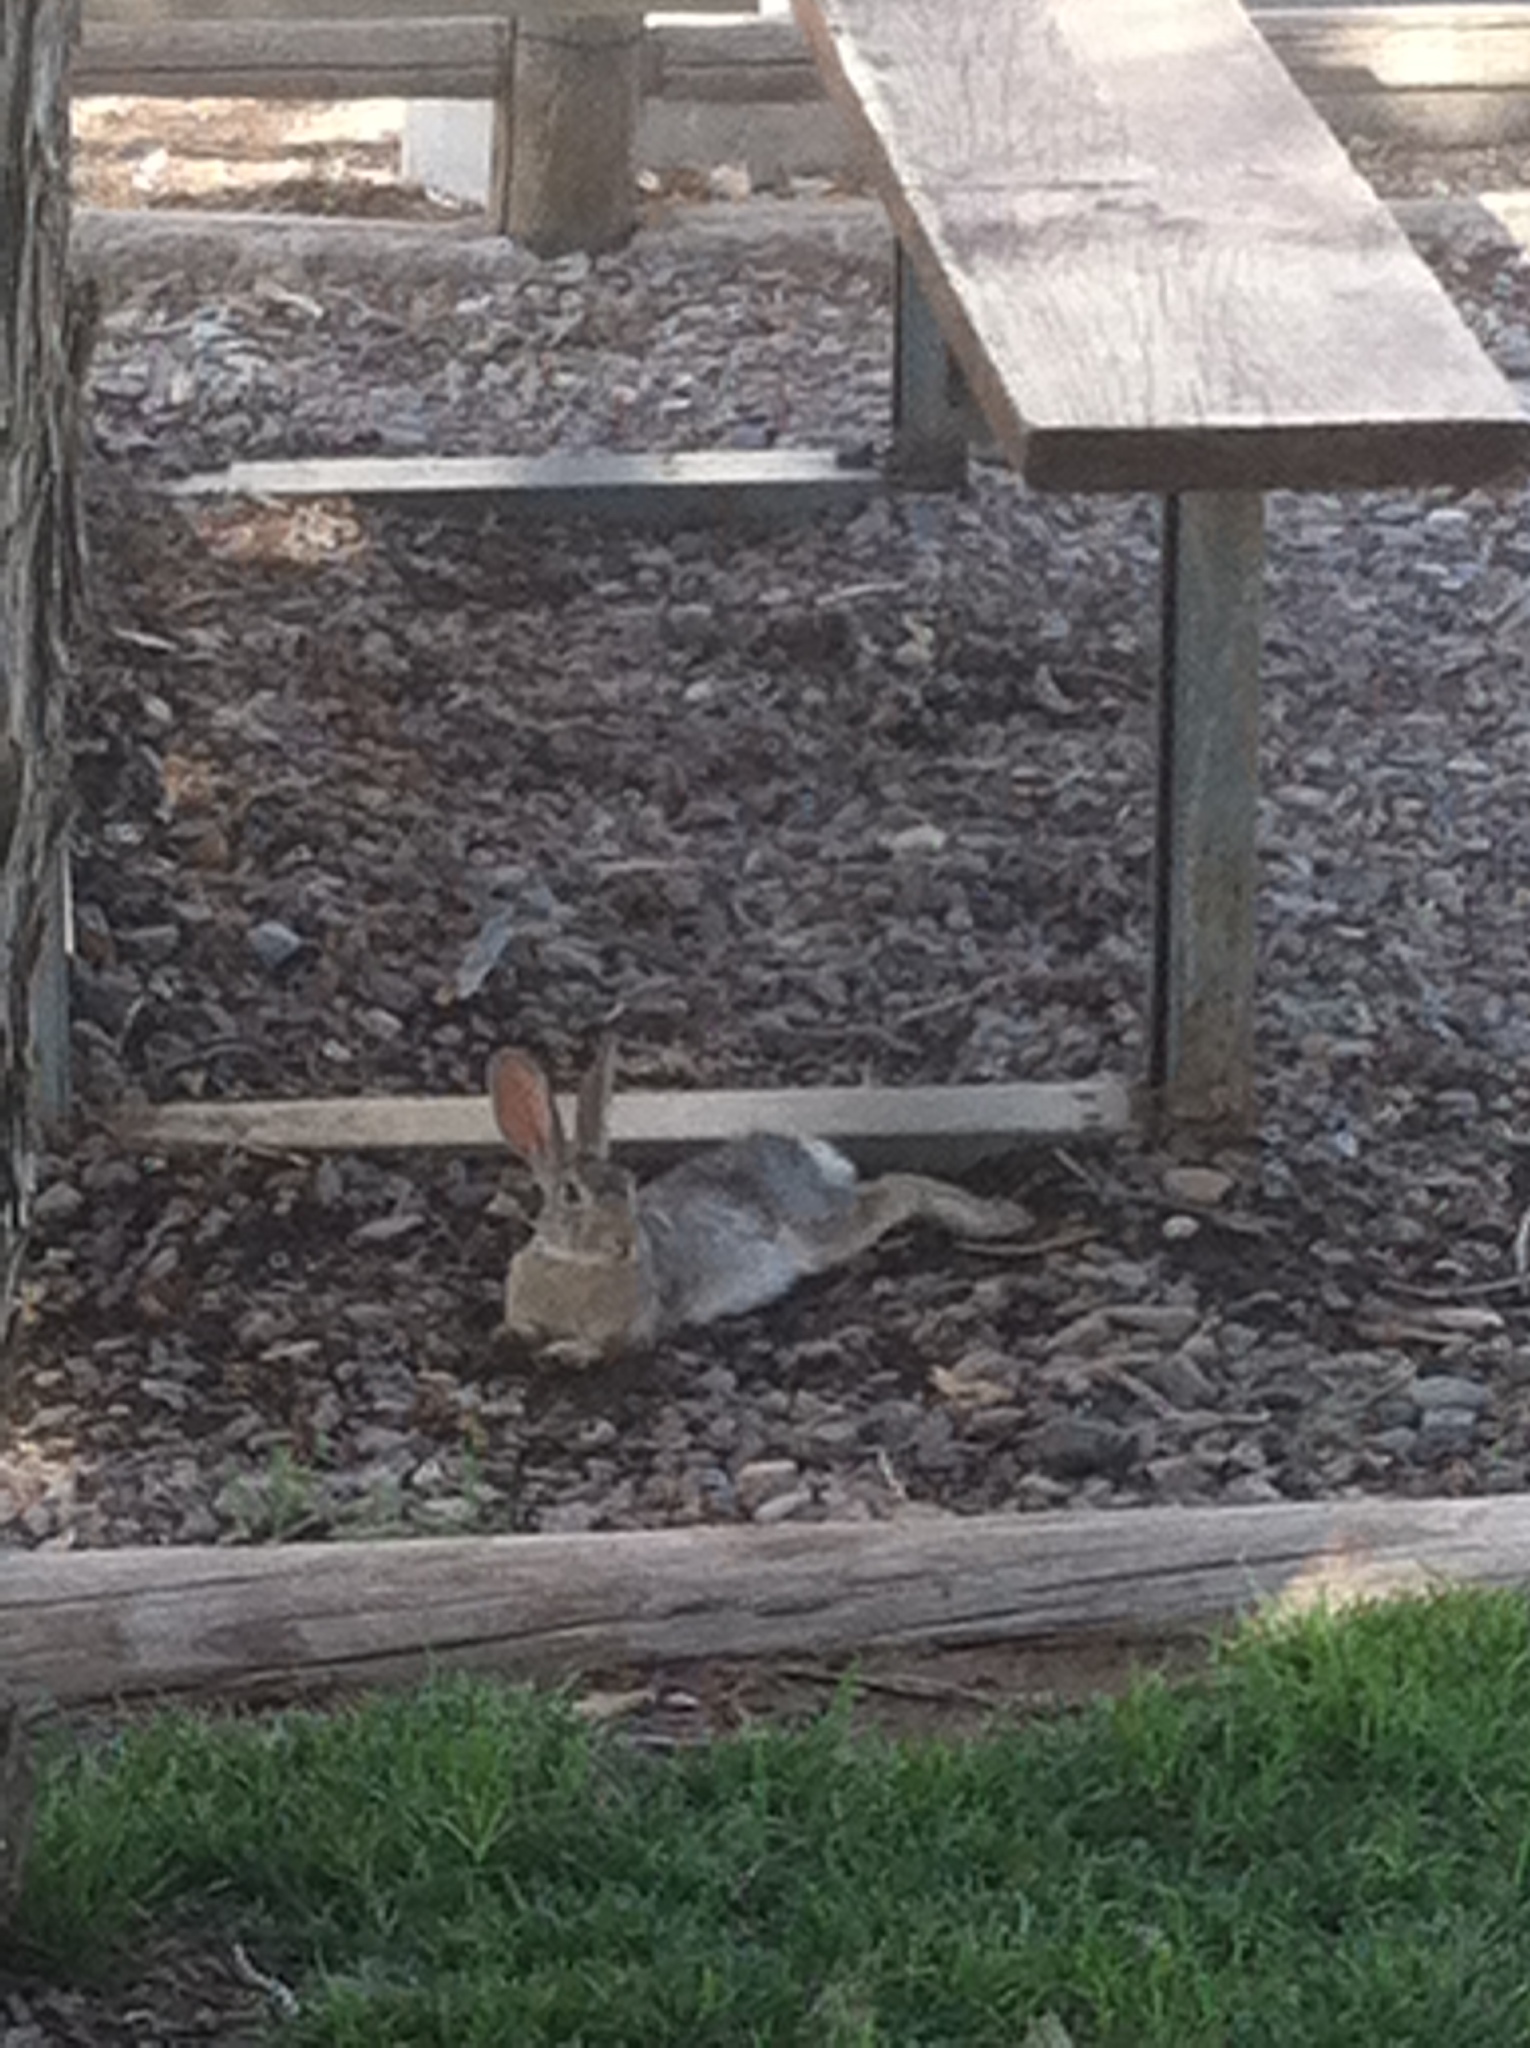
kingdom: Animalia
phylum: Chordata
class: Mammalia
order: Lagomorpha
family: Leporidae
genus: Sylvilagus
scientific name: Sylvilagus audubonii
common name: Desert cottontail
